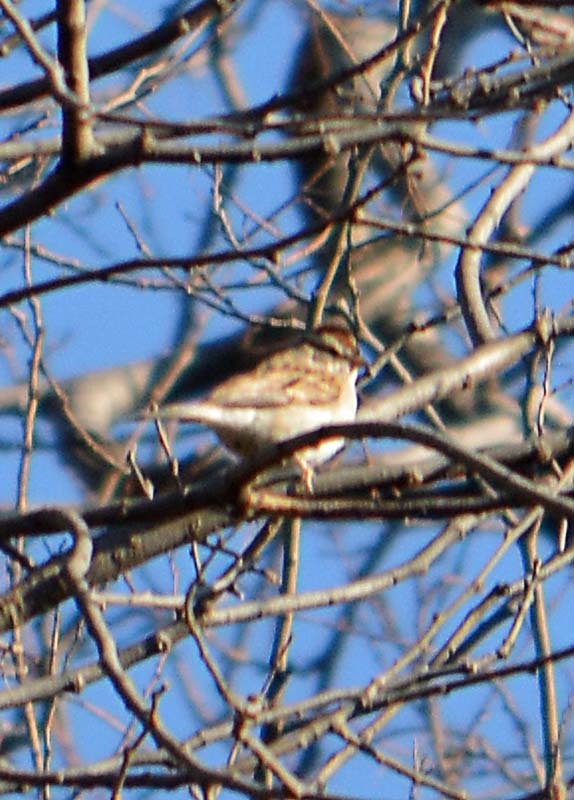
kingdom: Animalia
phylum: Chordata
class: Aves
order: Passeriformes
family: Passerellidae
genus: Spizella
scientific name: Spizella passerina
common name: Chipping sparrow
